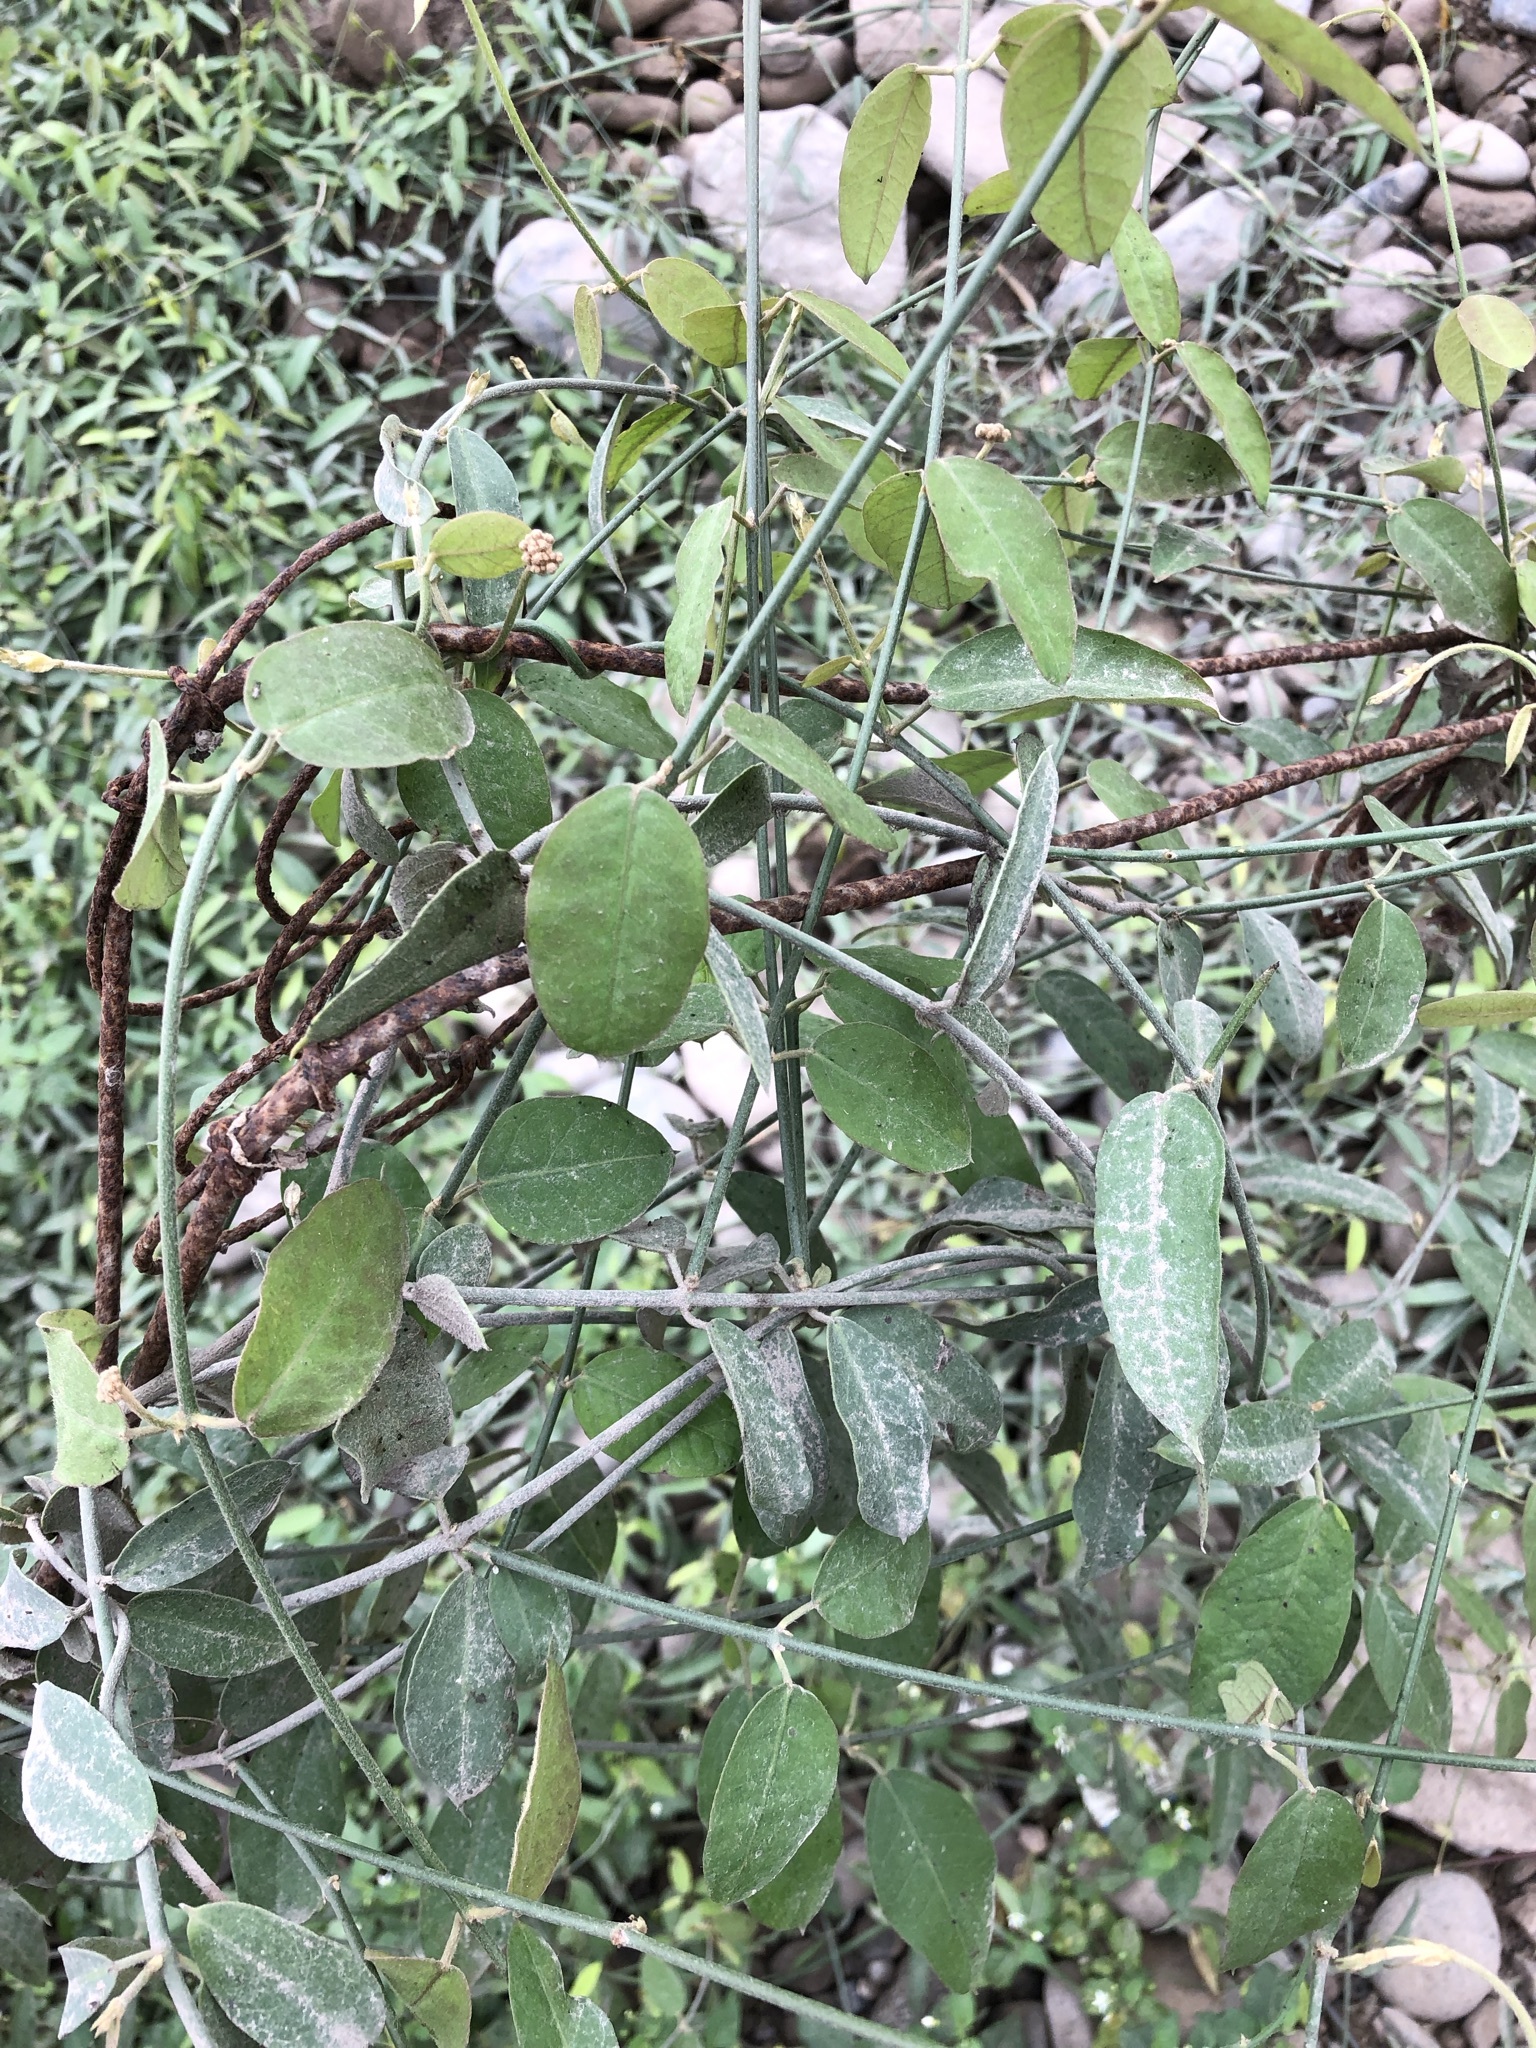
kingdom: Plantae
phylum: Tracheophyta
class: Magnoliopsida
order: Gentianales
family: Apocynaceae
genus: Funastrum
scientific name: Funastrum clausum
